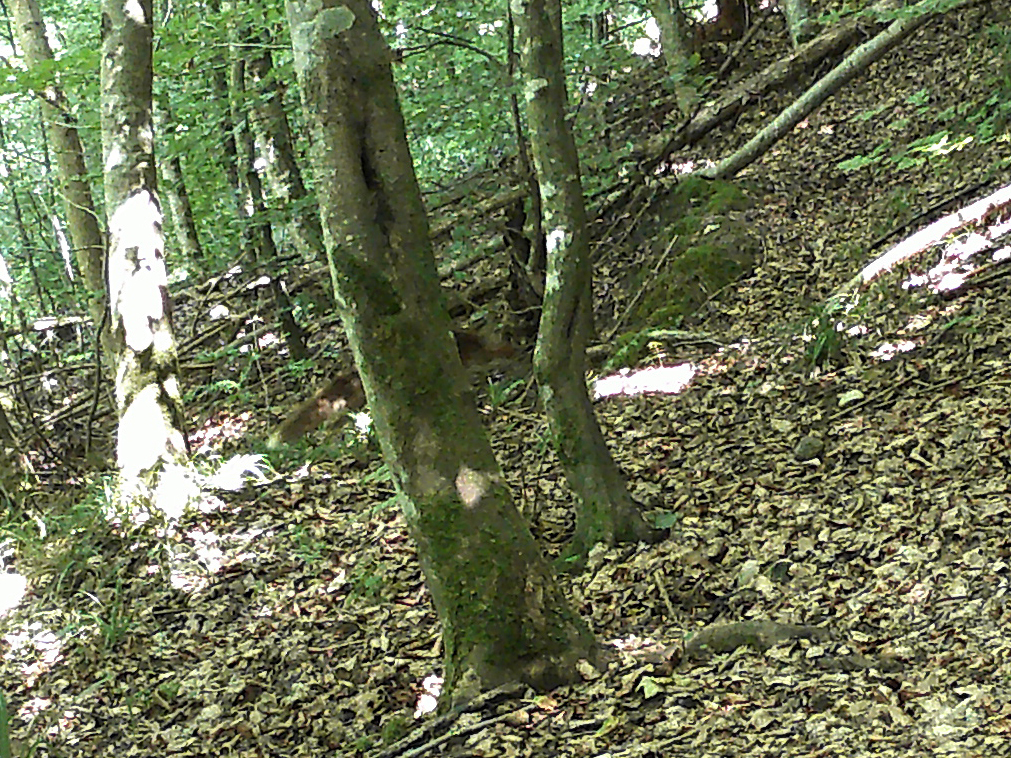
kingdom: Animalia
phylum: Chordata
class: Mammalia
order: Carnivora
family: Canidae
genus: Vulpes
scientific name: Vulpes vulpes
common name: Red fox
